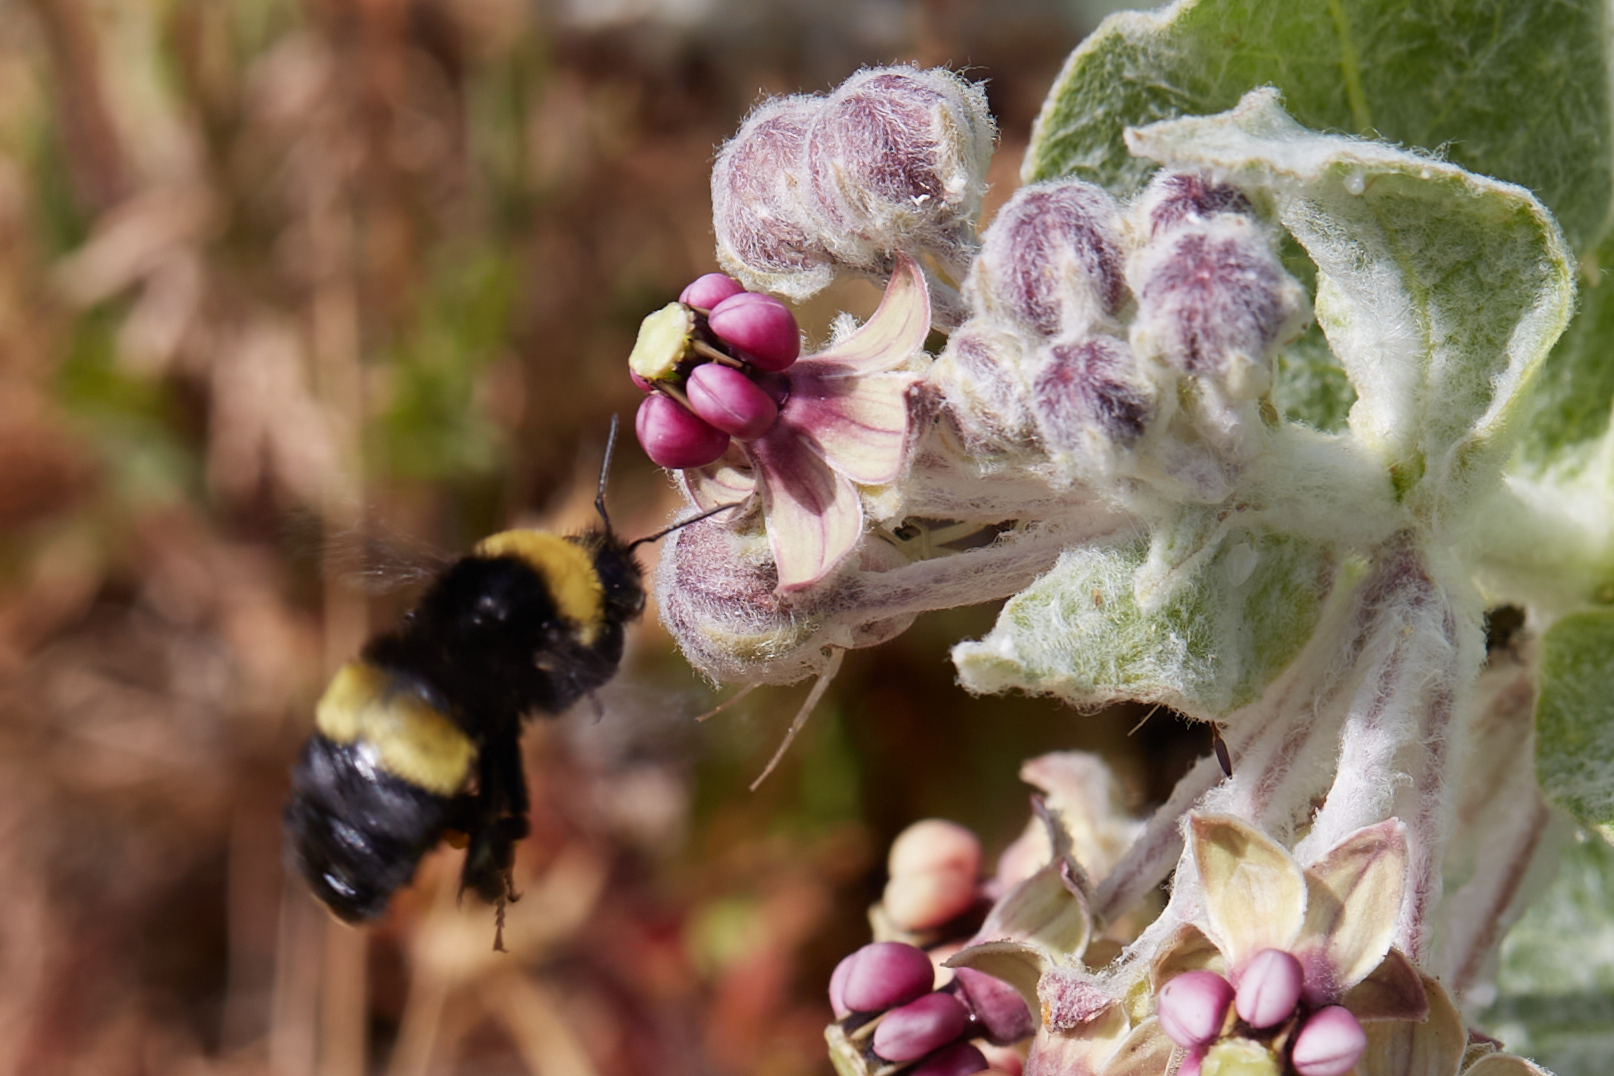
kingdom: Animalia
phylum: Arthropoda
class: Insecta
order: Hymenoptera
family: Apidae
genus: Bombus
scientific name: Bombus crotchii
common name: Crotch bumble bee
